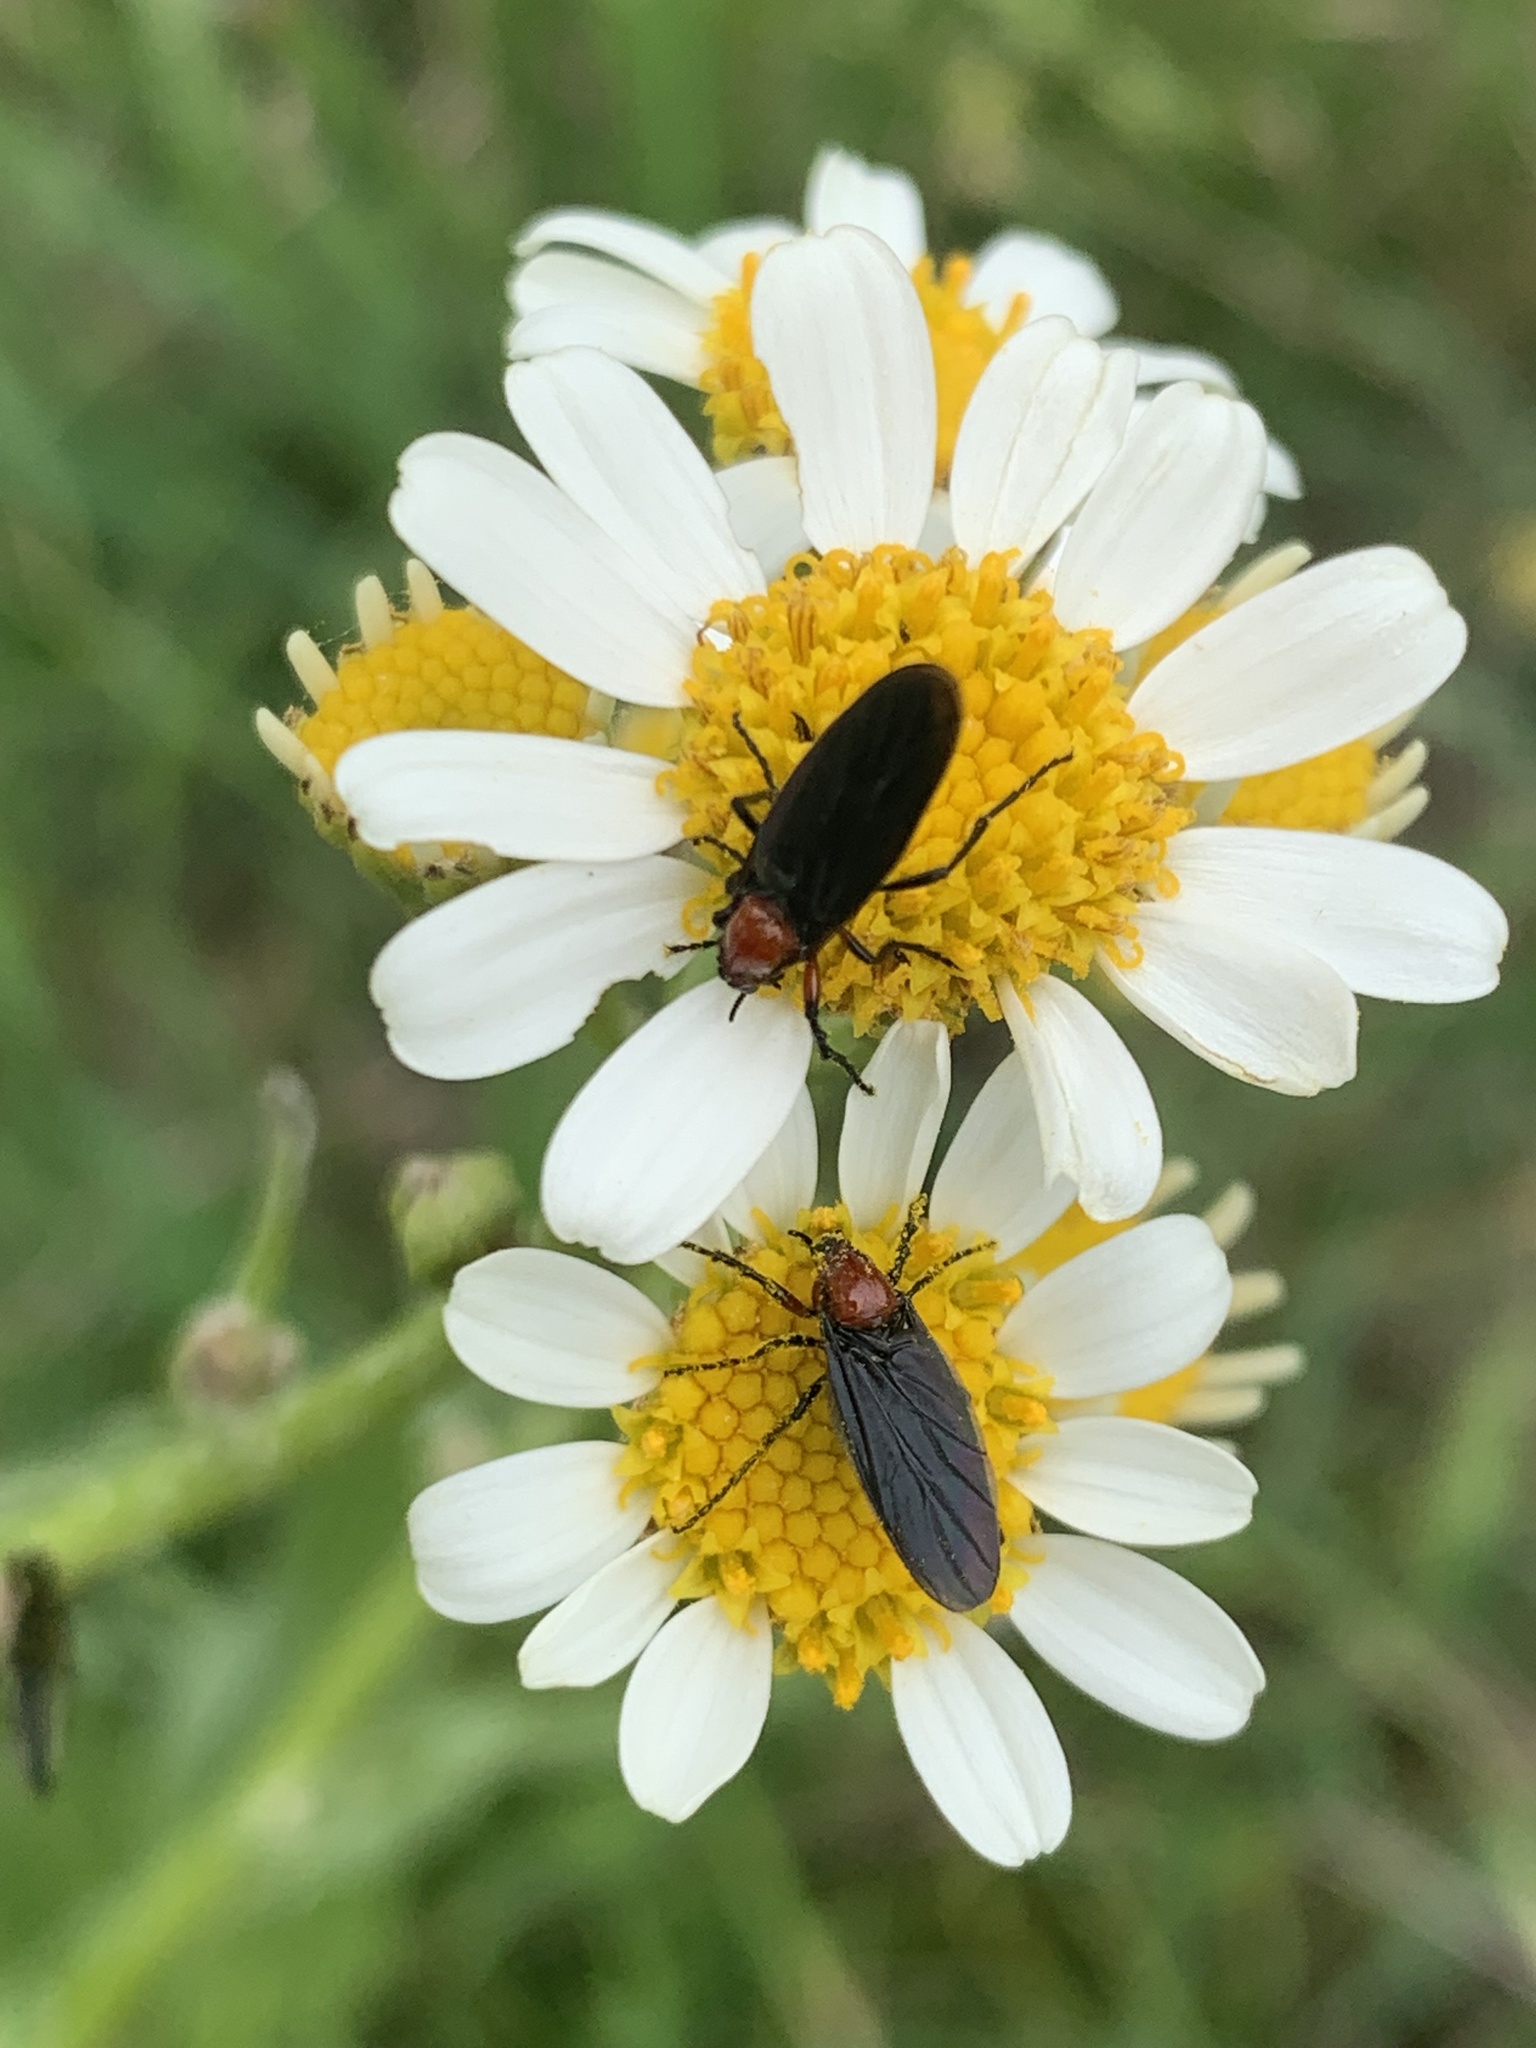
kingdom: Animalia
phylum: Arthropoda
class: Insecta
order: Diptera
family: Bibionidae
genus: Dilophus
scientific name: Dilophus pectoralis
